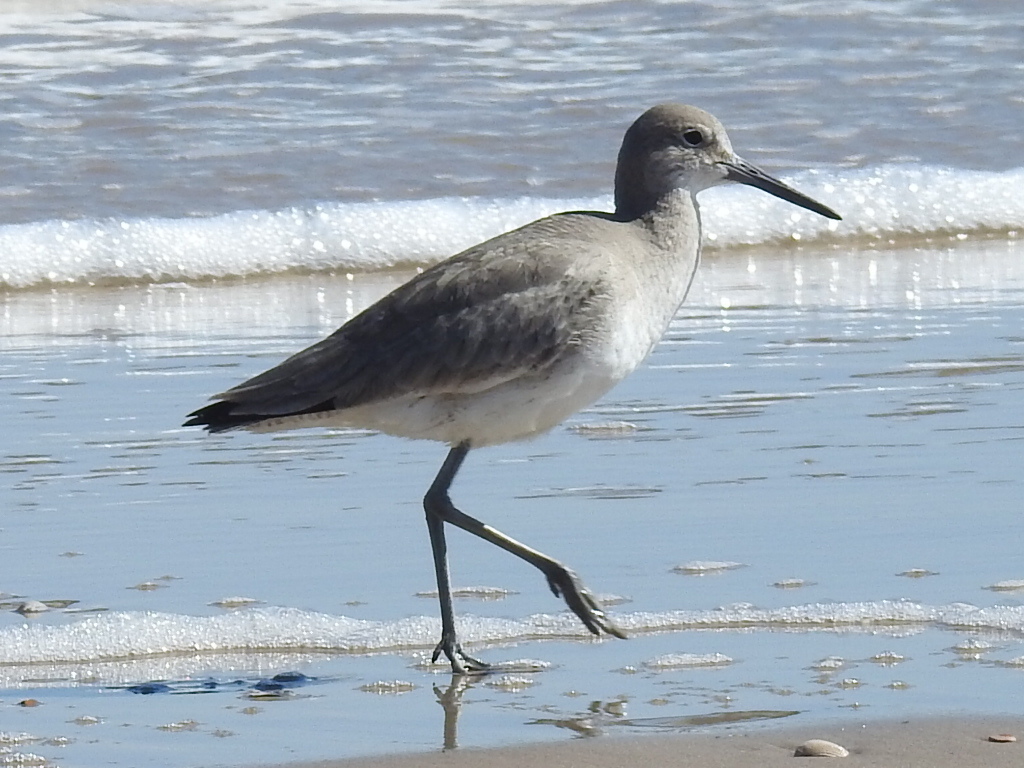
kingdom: Animalia
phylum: Chordata
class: Aves
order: Charadriiformes
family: Scolopacidae
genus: Tringa
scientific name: Tringa semipalmata
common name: Willet
